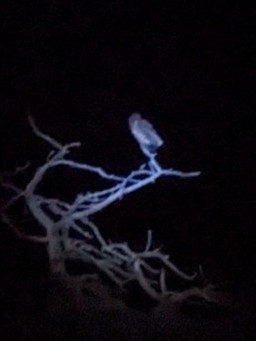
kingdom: Animalia
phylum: Chordata
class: Aves
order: Strigiformes
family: Strigidae
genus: Strix
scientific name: Strix occidentalis
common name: Spotted owl
